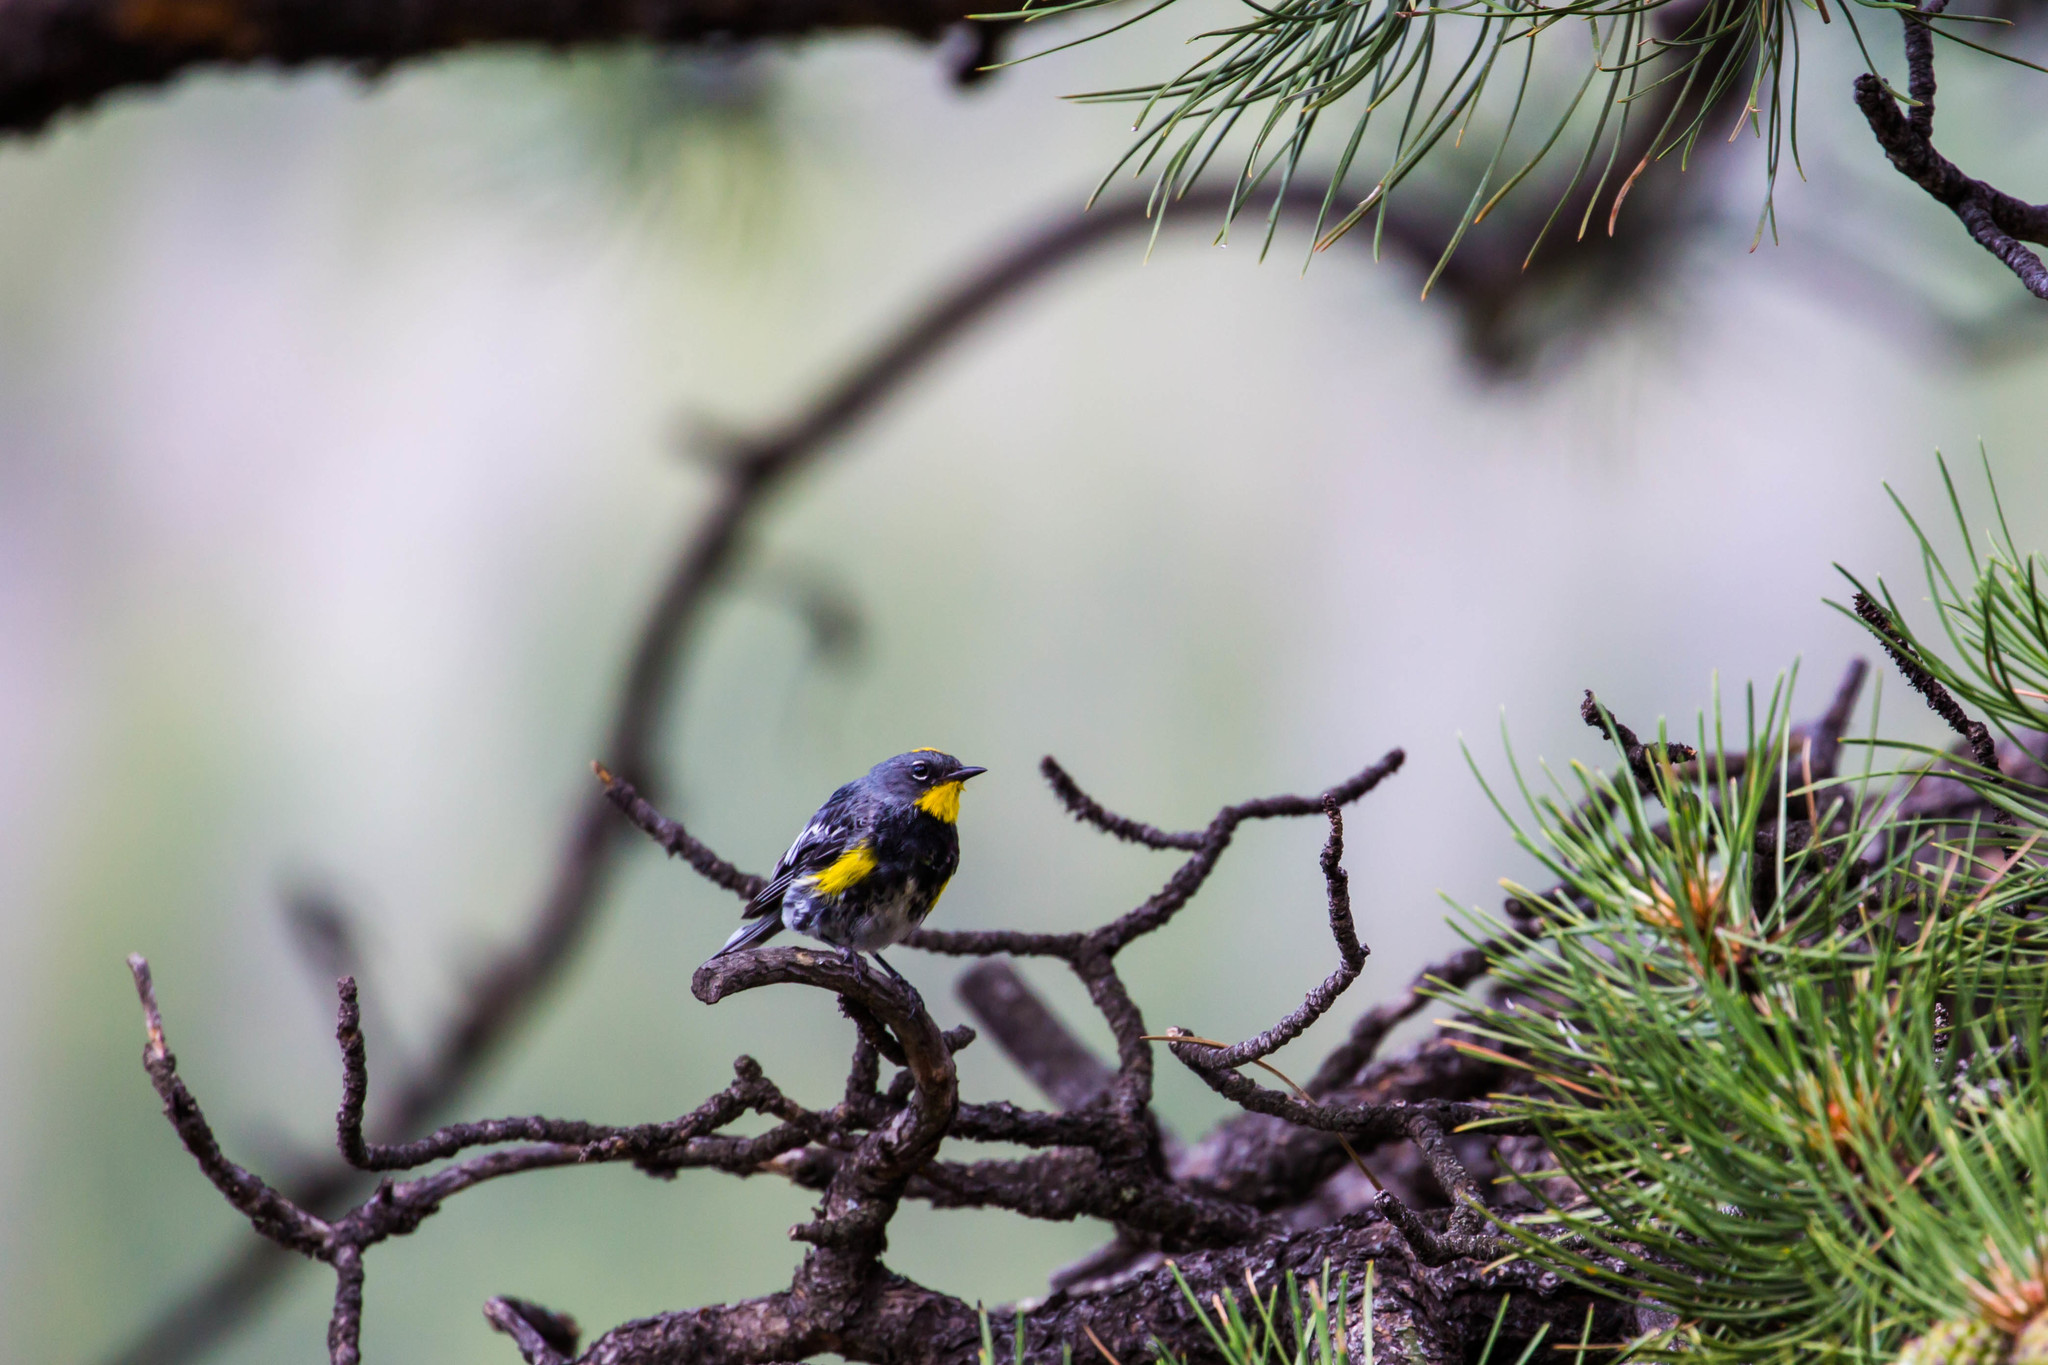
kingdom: Animalia
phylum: Chordata
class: Aves
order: Passeriformes
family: Parulidae
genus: Setophaga
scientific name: Setophaga auduboni
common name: Audubon's warbler
